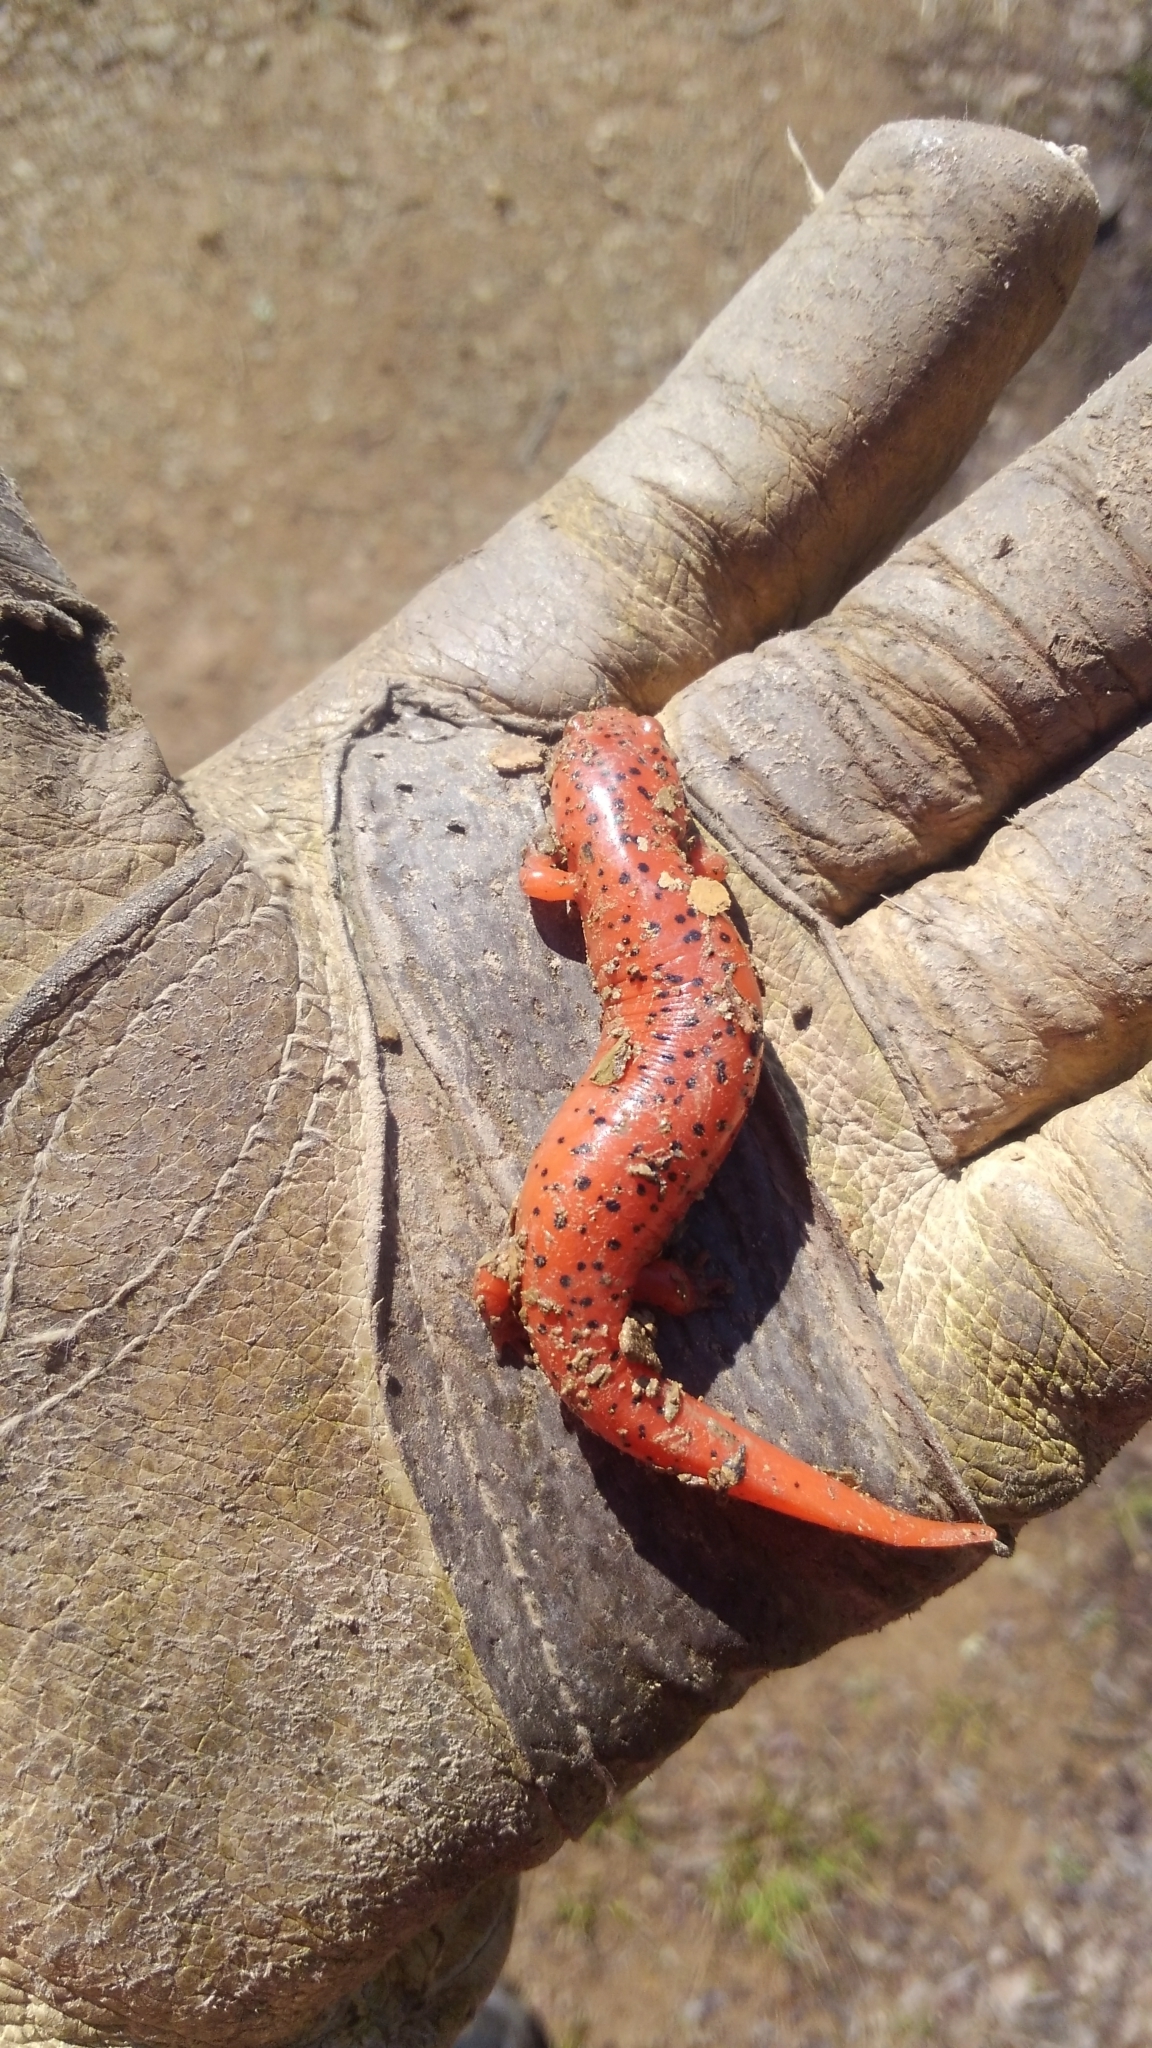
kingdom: Animalia
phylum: Chordata
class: Amphibia
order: Caudata
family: Plethodontidae
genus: Pseudotriton
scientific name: Pseudotriton ruber
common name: Red salamander
